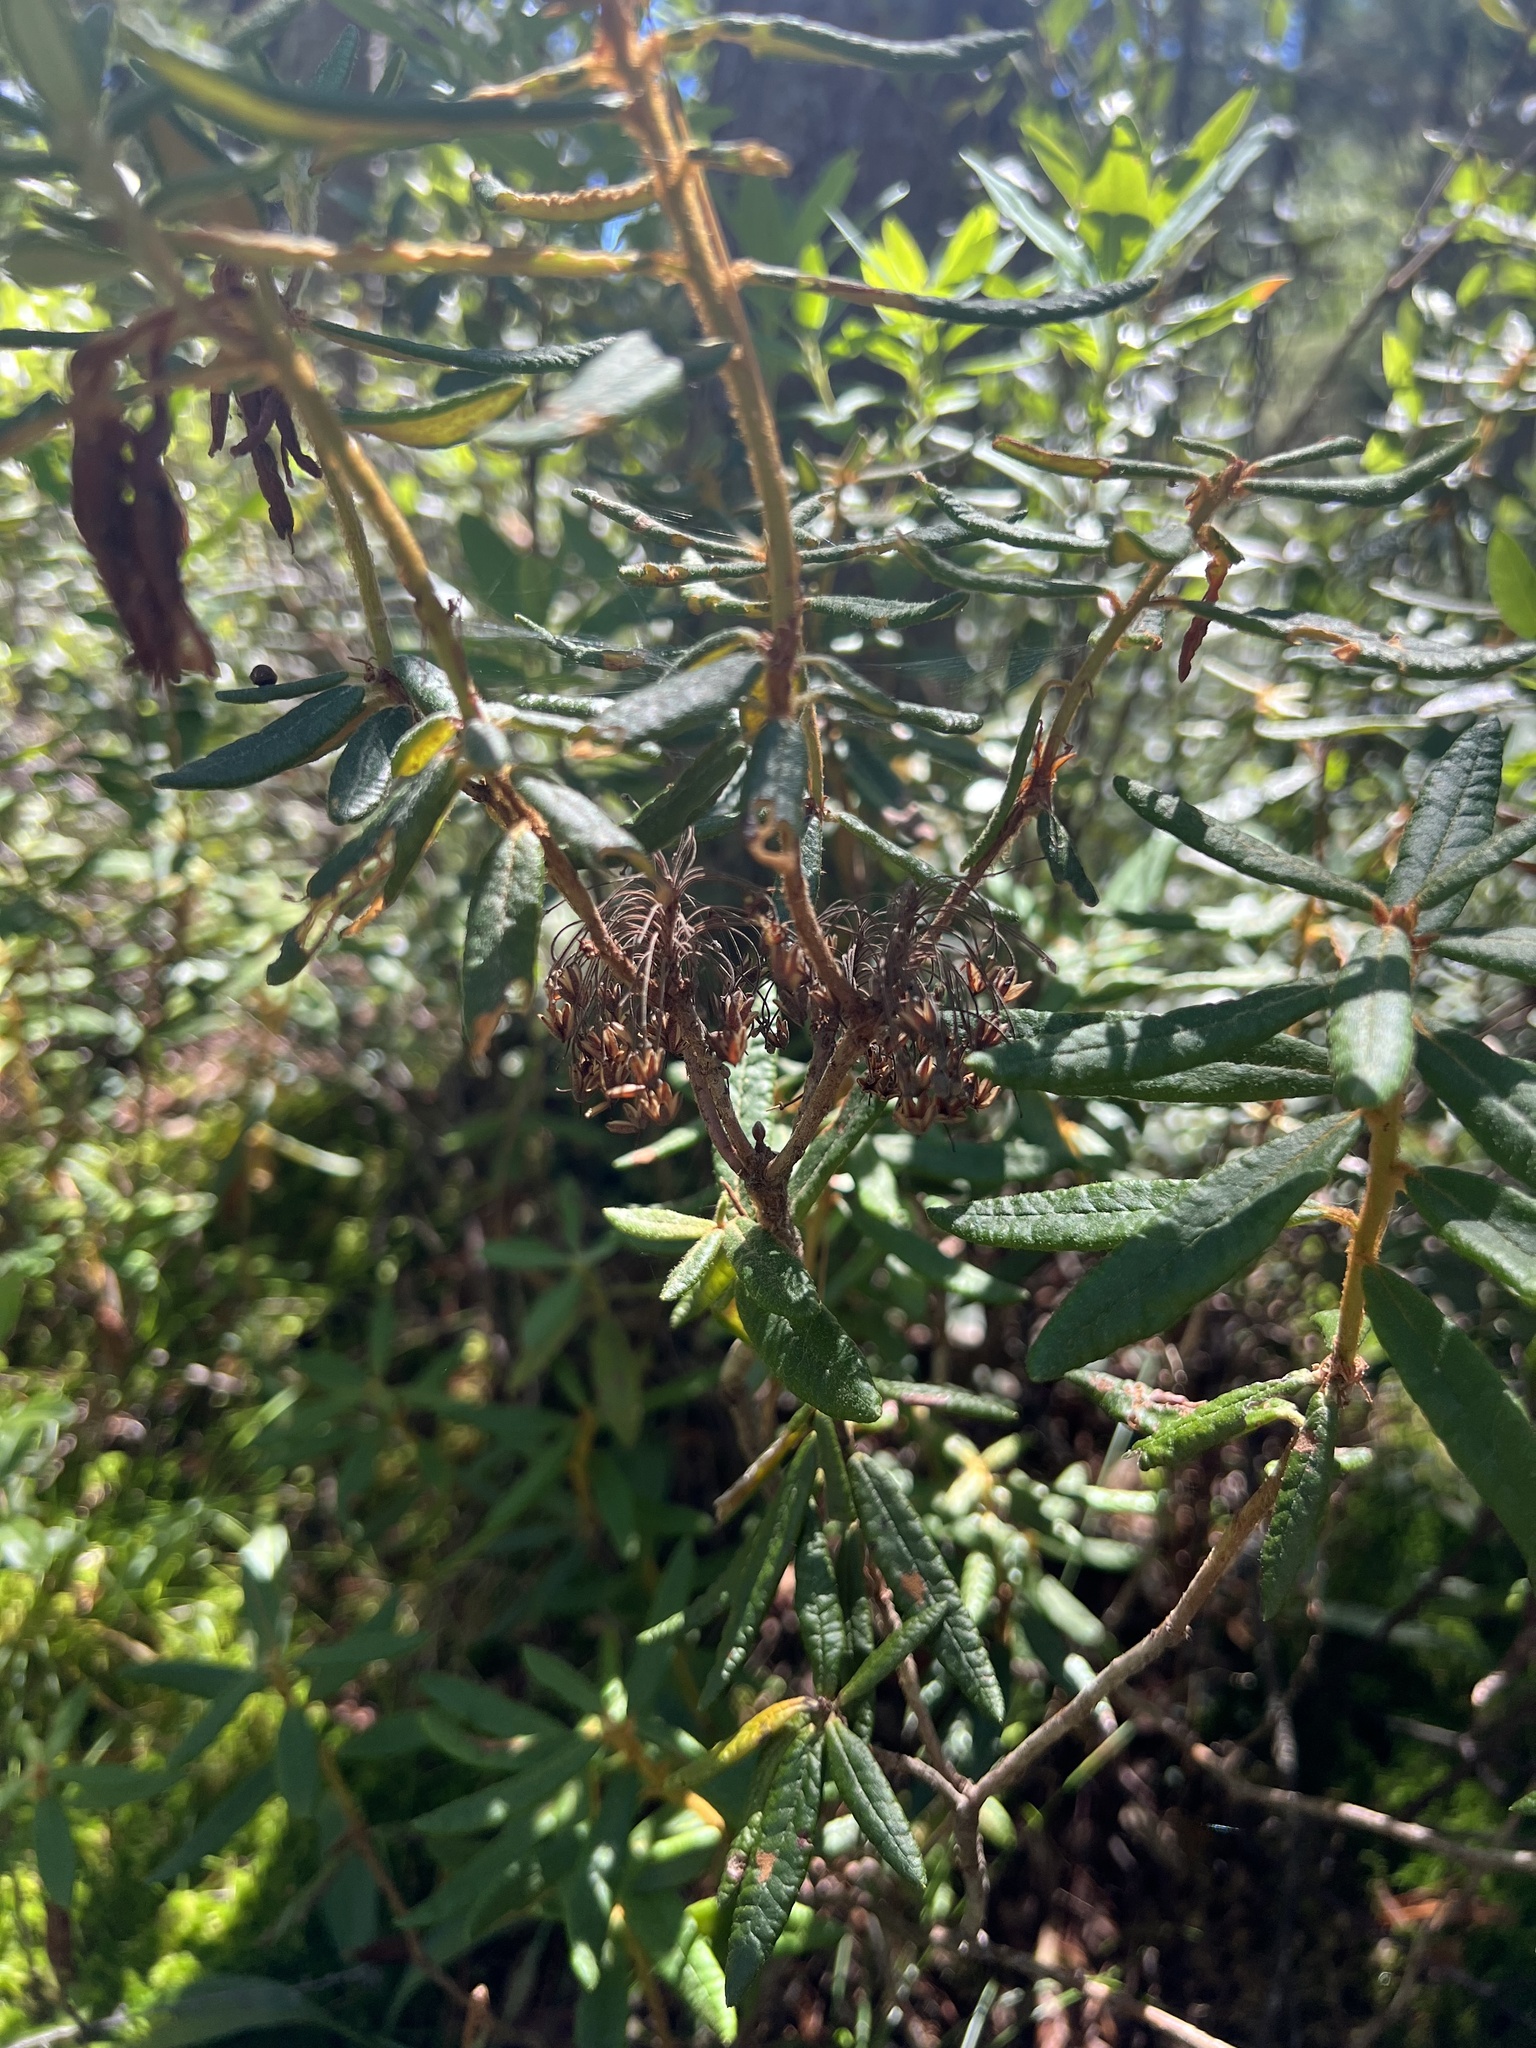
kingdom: Plantae
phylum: Tracheophyta
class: Magnoliopsida
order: Ericales
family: Ericaceae
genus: Rhododendron
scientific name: Rhododendron groenlandicum
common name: Bog labrador tea
